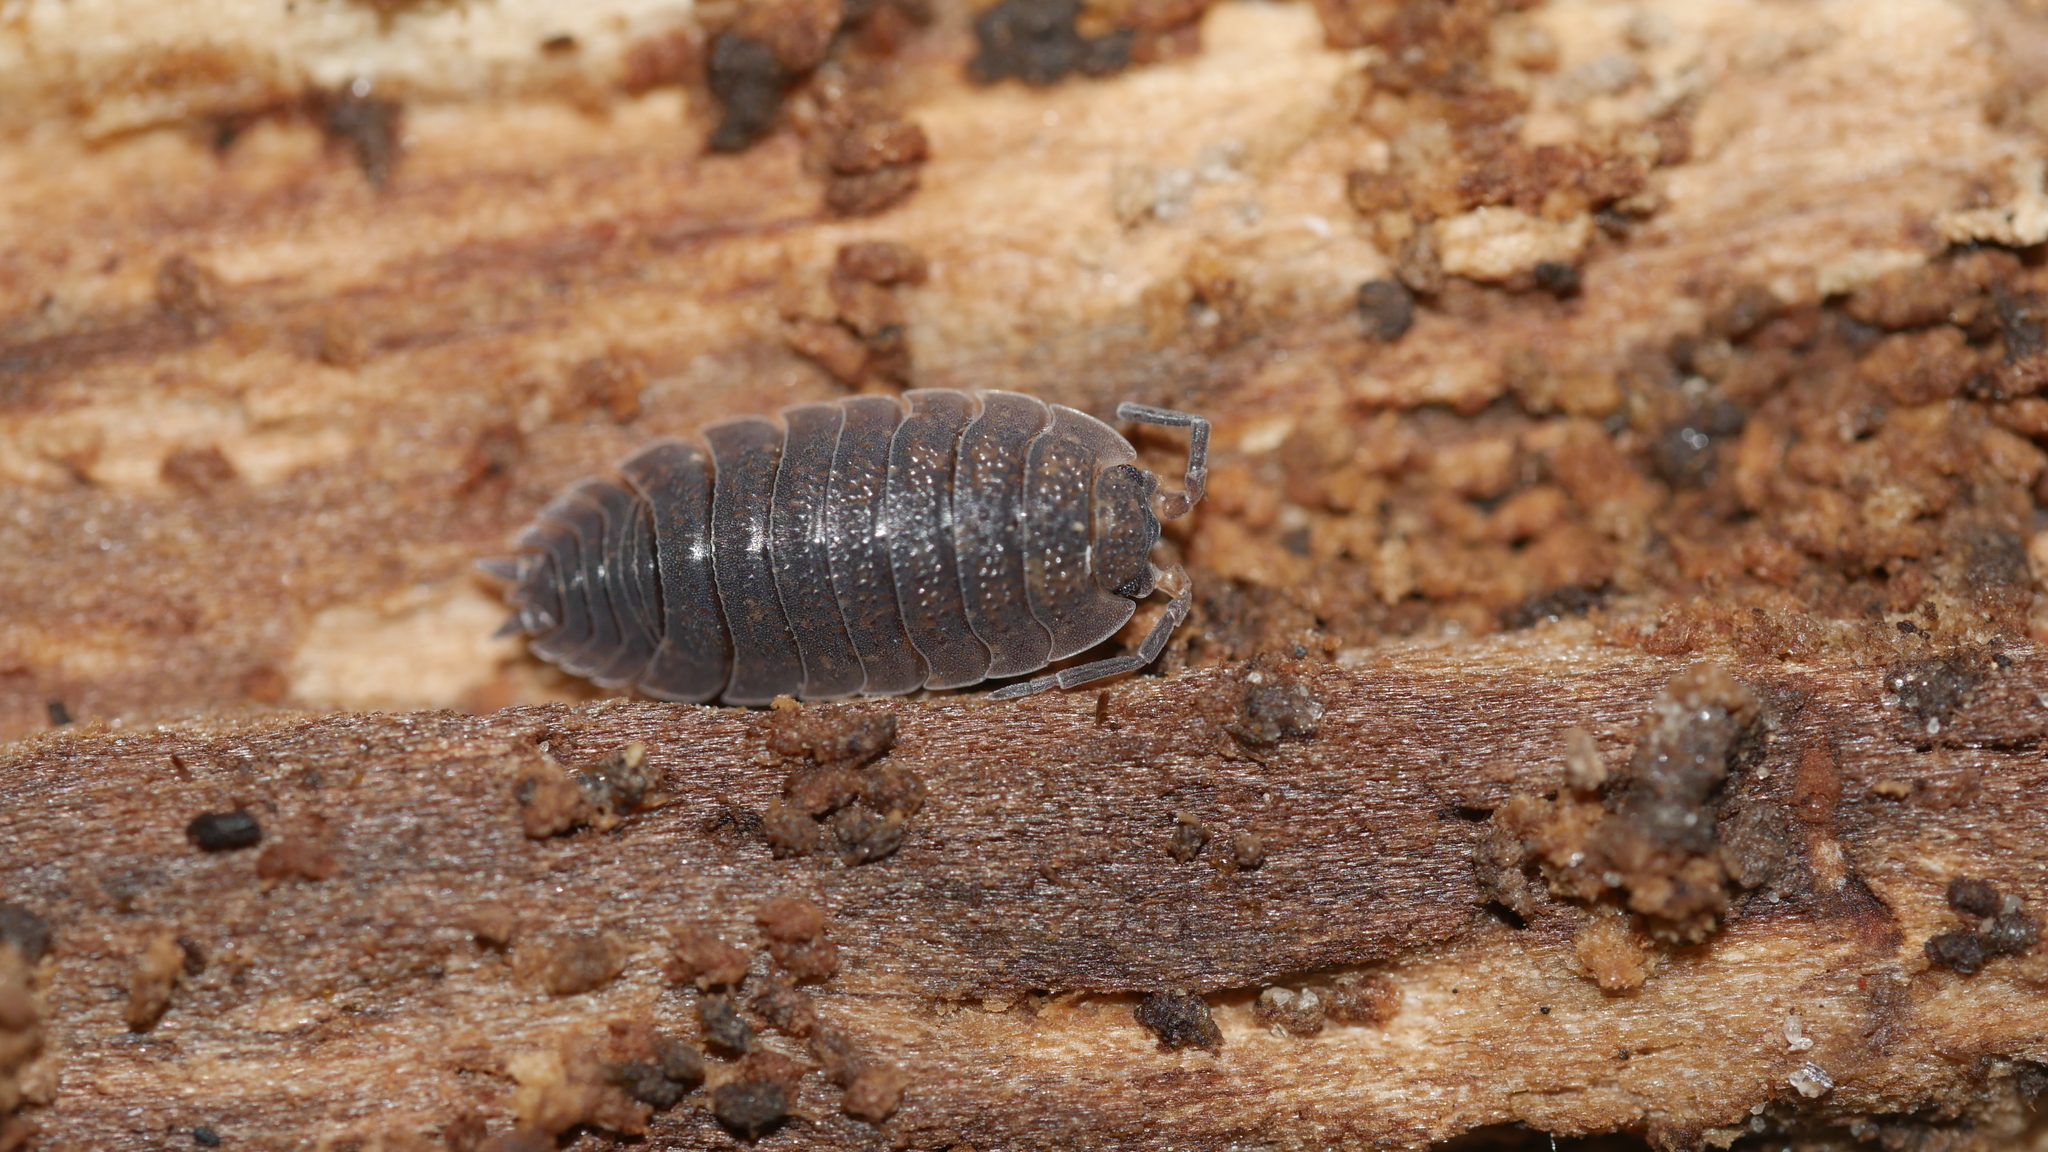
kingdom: Animalia
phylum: Arthropoda
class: Malacostraca
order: Isopoda
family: Porcellionidae
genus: Porcellio
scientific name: Porcellio scaber
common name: Common rough woodlouse
